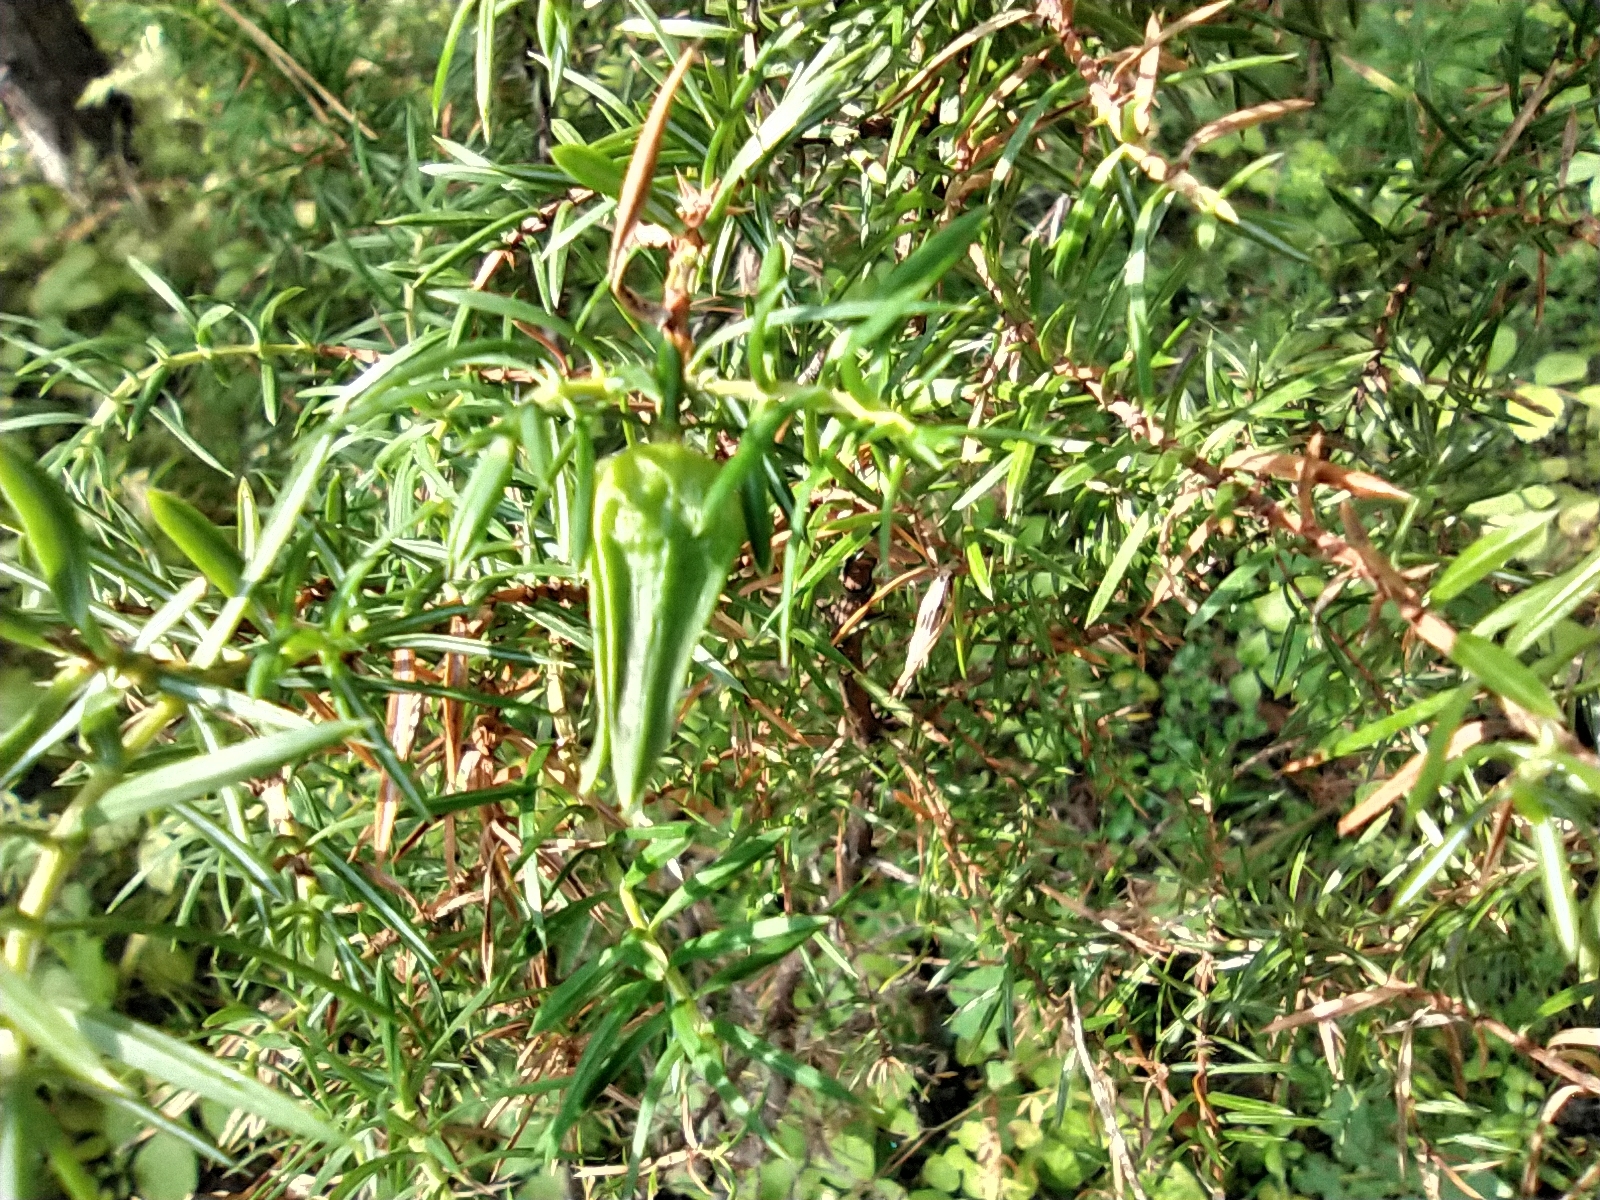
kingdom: Plantae
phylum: Tracheophyta
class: Pinopsida
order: Pinales
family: Cupressaceae
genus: Juniperus
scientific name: Juniperus communis
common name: Common juniper
